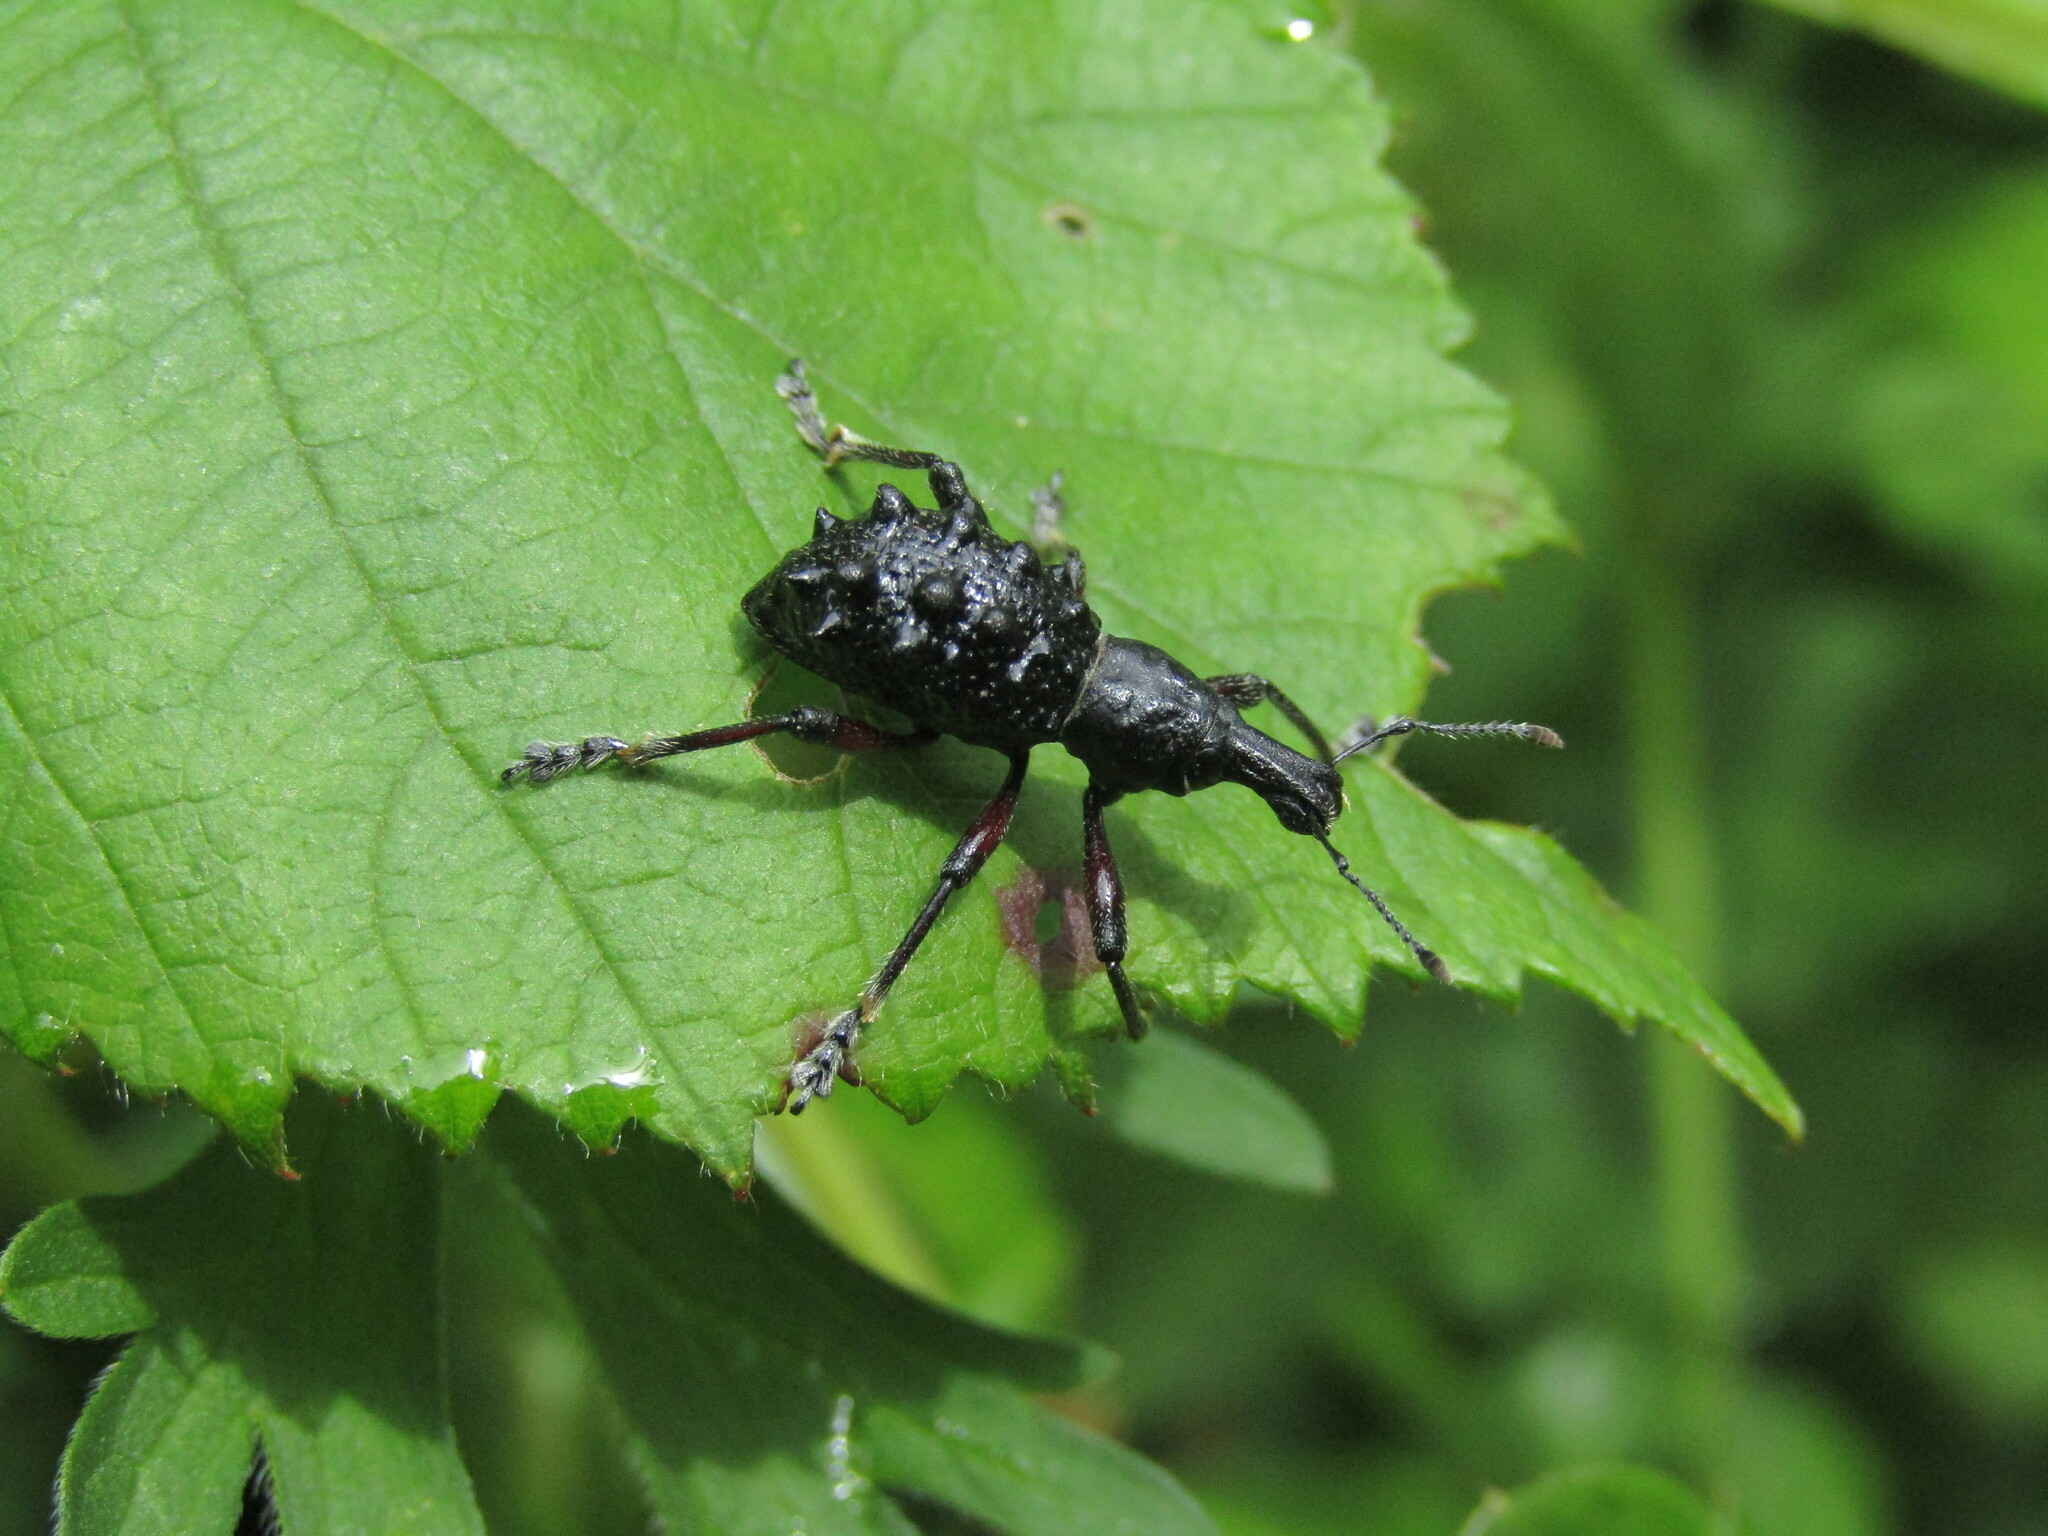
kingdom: Animalia
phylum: Arthropoda
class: Insecta
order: Coleoptera
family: Curculionidae
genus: Megalometides
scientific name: Megalometides cacicus
